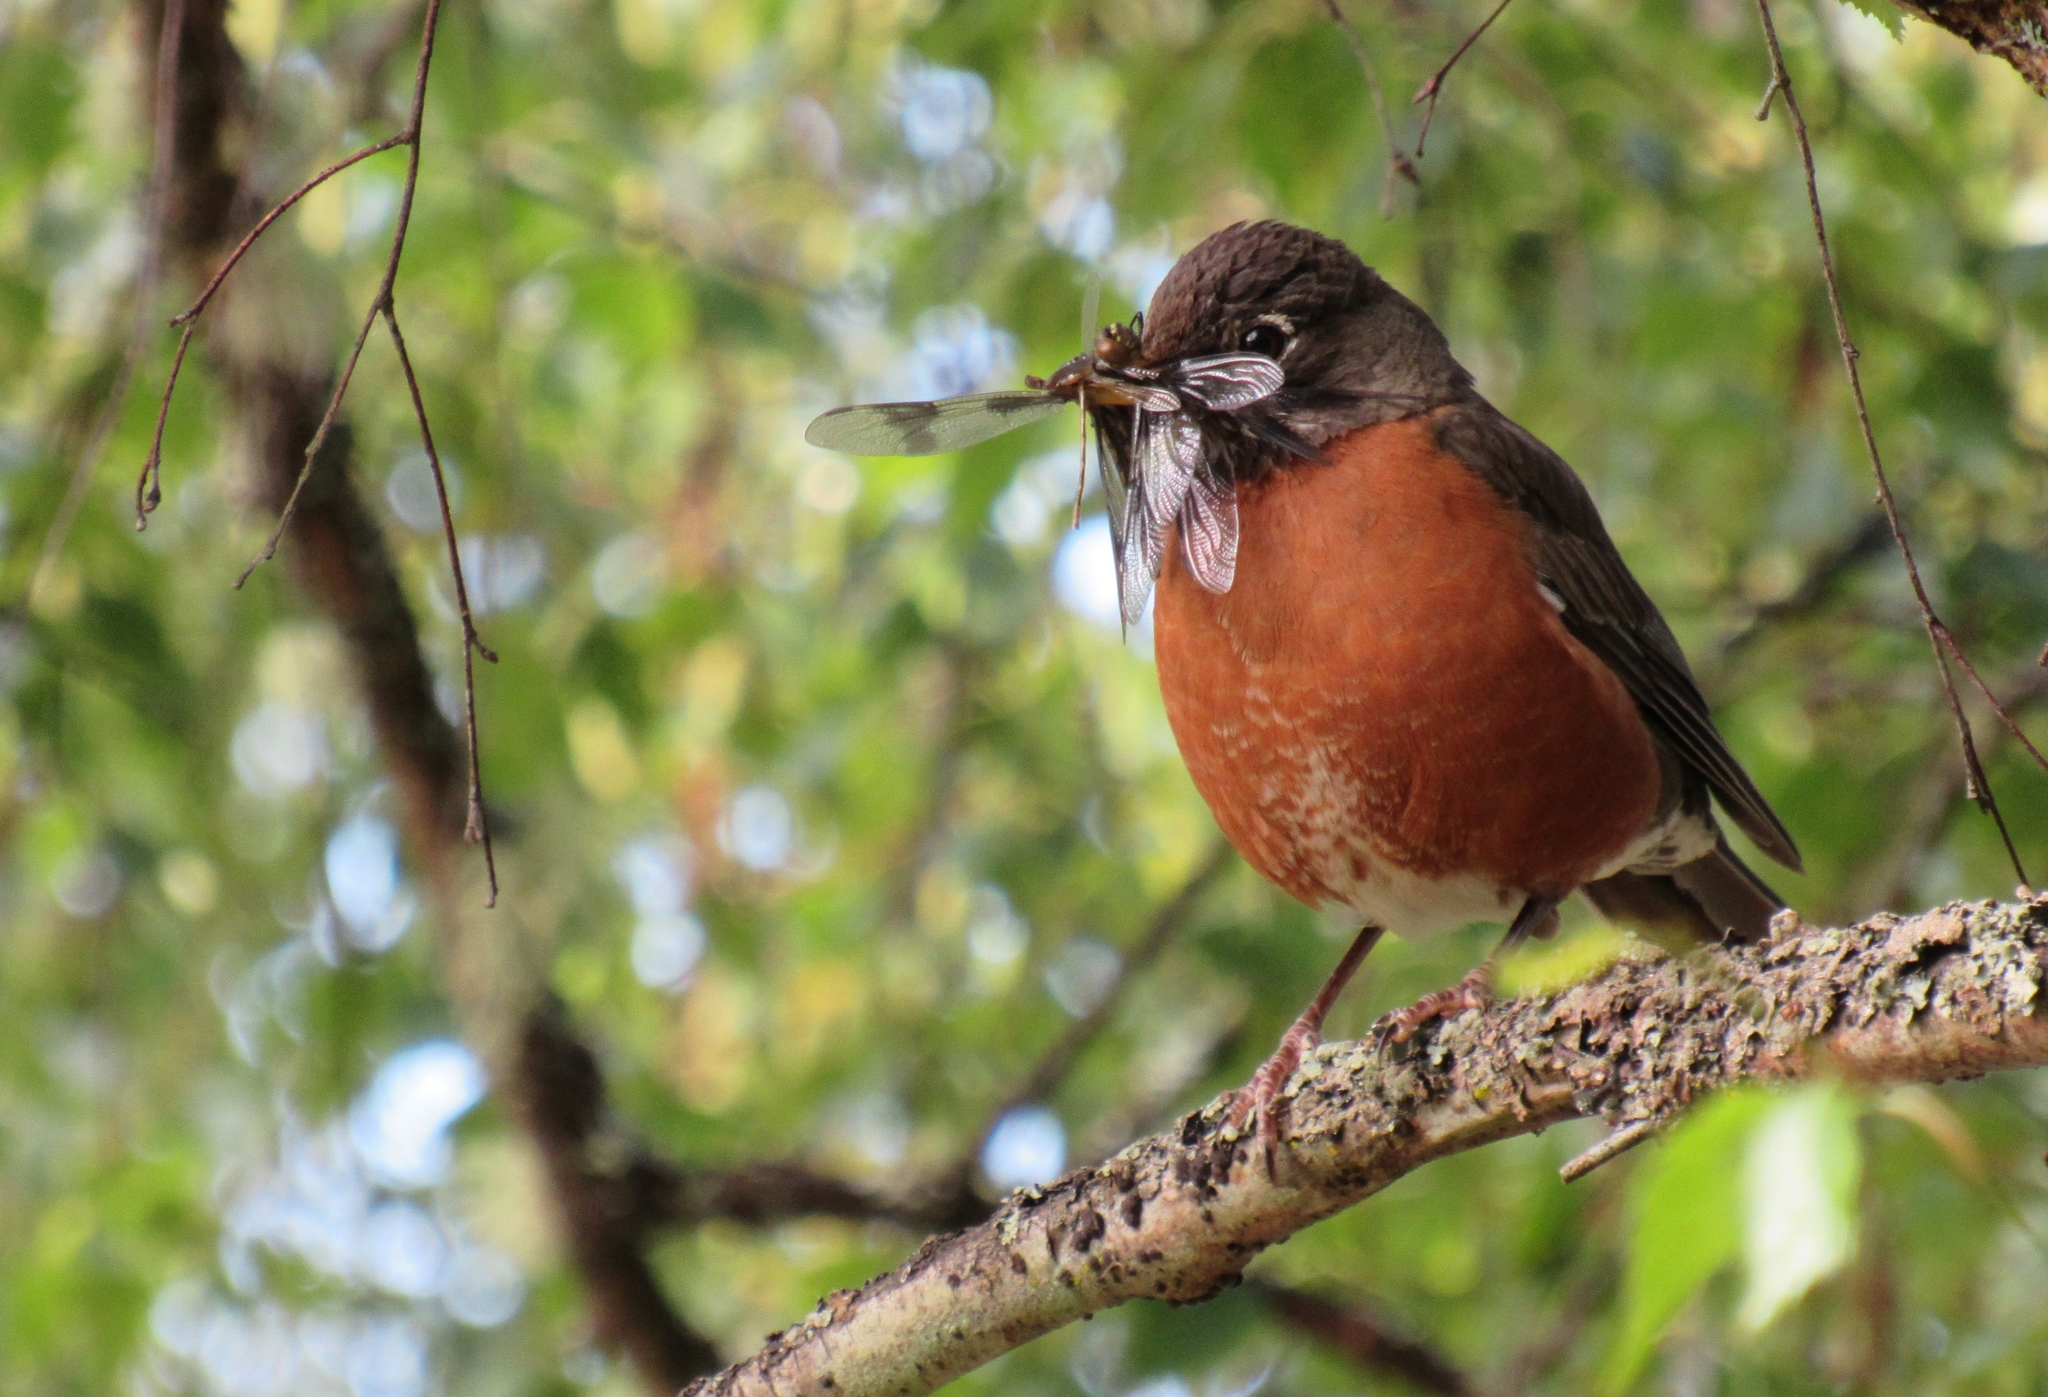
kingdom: Animalia
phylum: Chordata
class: Aves
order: Passeriformes
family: Turdidae
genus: Turdus
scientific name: Turdus migratorius
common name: American robin
